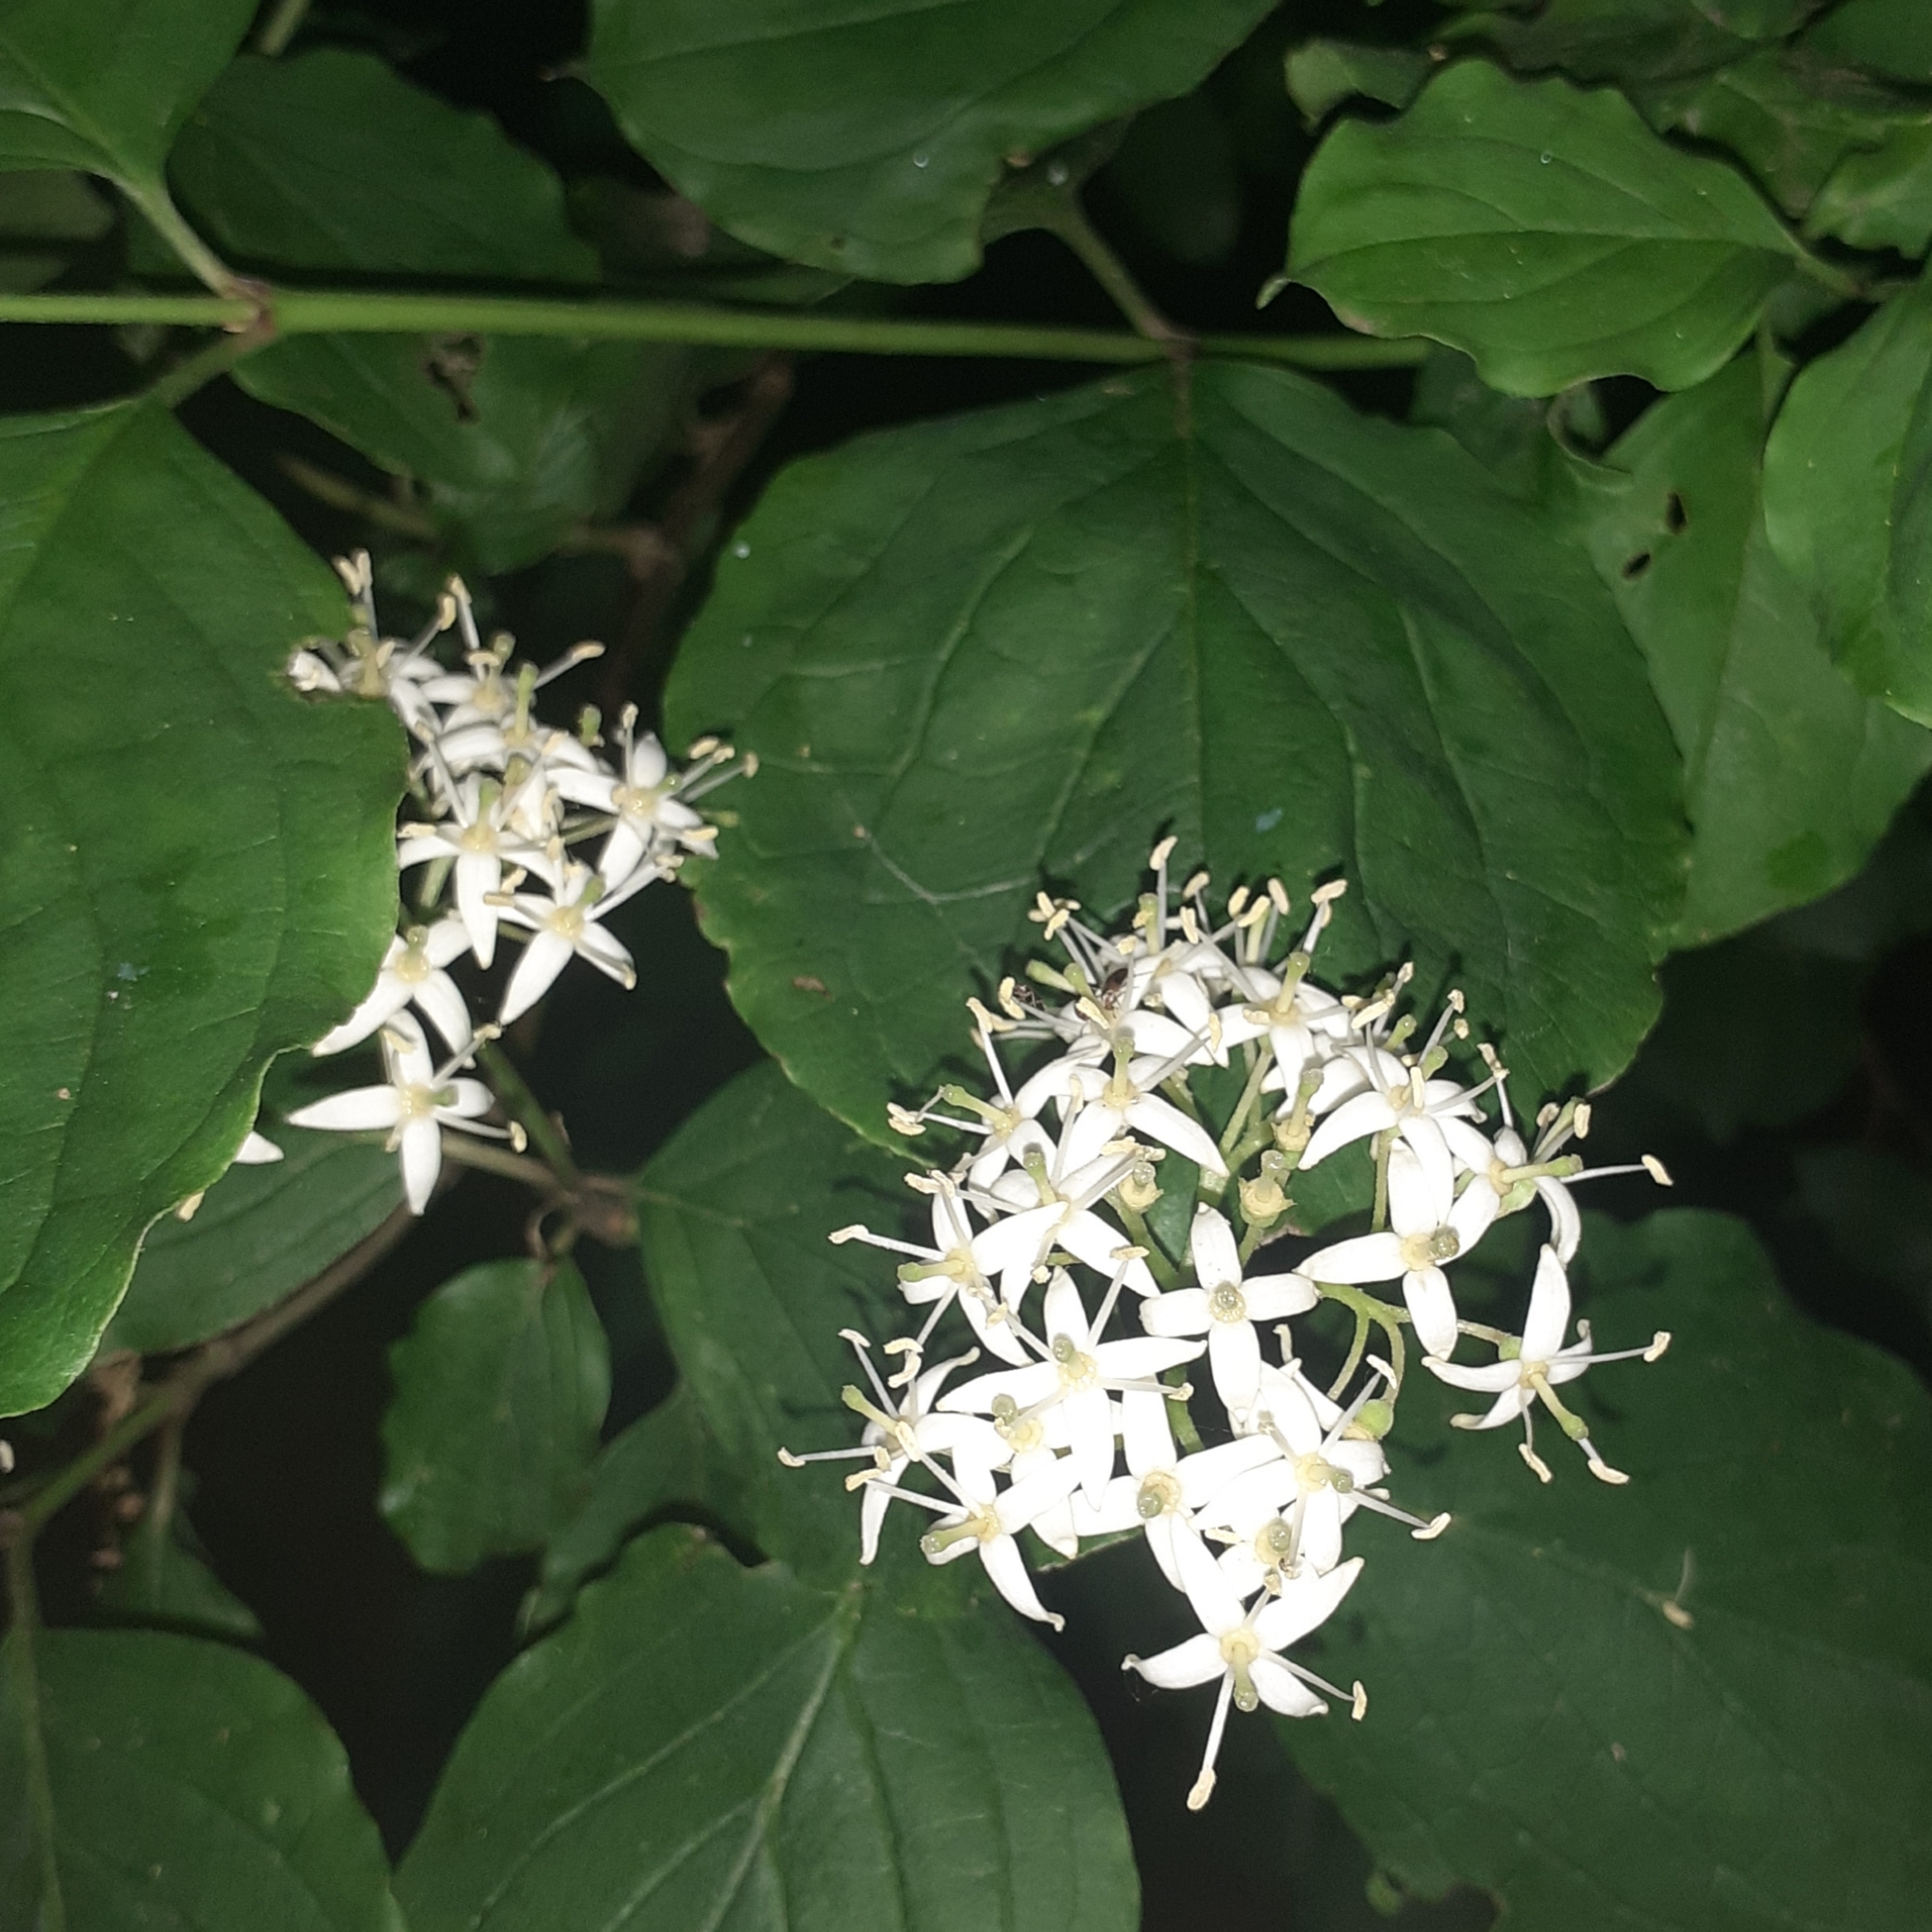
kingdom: Plantae
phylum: Tracheophyta
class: Magnoliopsida
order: Cornales
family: Cornaceae
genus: Cornus
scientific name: Cornus sanguinea
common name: Dogwood
